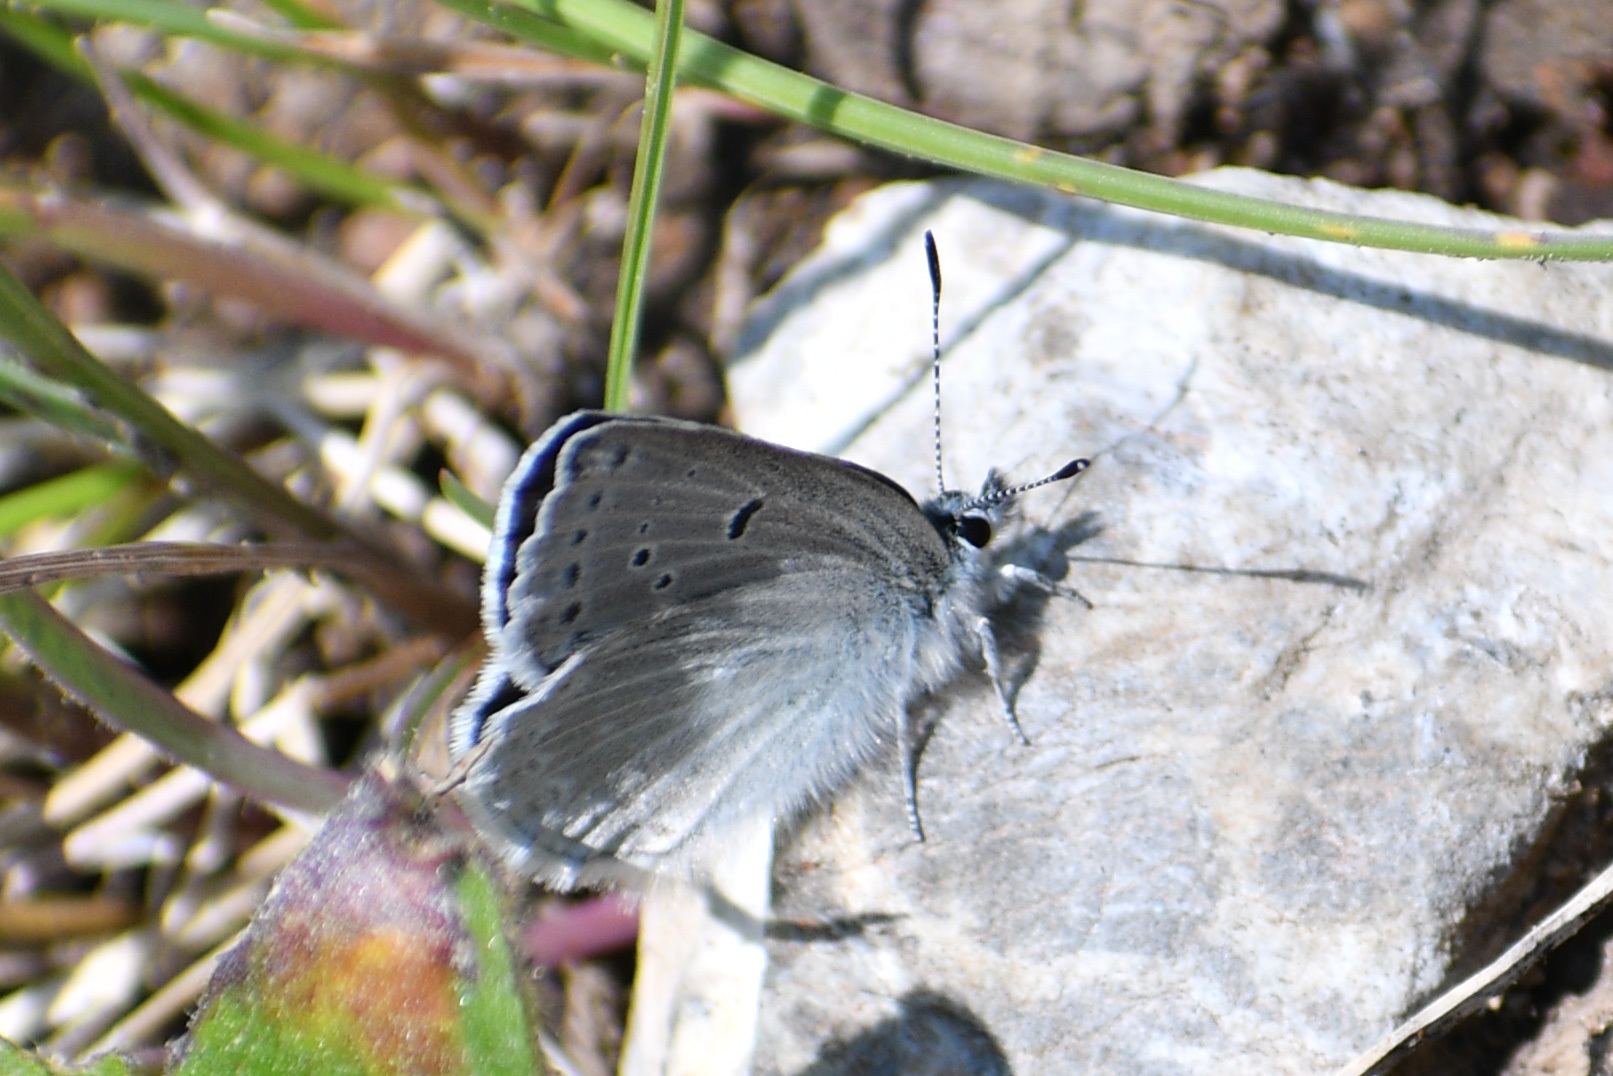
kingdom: Animalia
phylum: Arthropoda
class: Insecta
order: Lepidoptera
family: Lycaenidae
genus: Icaricia
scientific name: Icaricia icarioides
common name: Boisduval's blue
